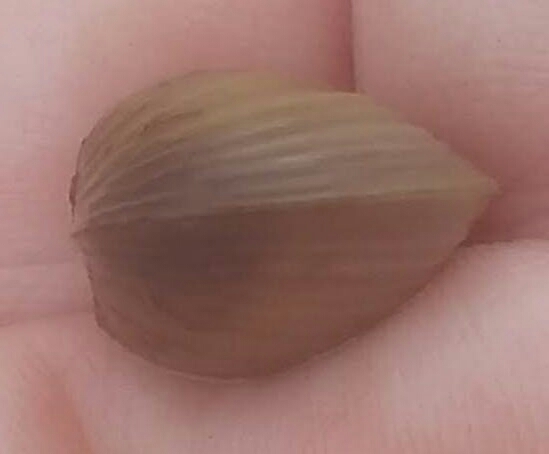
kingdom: Animalia
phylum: Mollusca
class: Bivalvia
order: Venerida
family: Cyrenidae
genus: Corbicula
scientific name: Corbicula fluminea
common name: Asian clam
